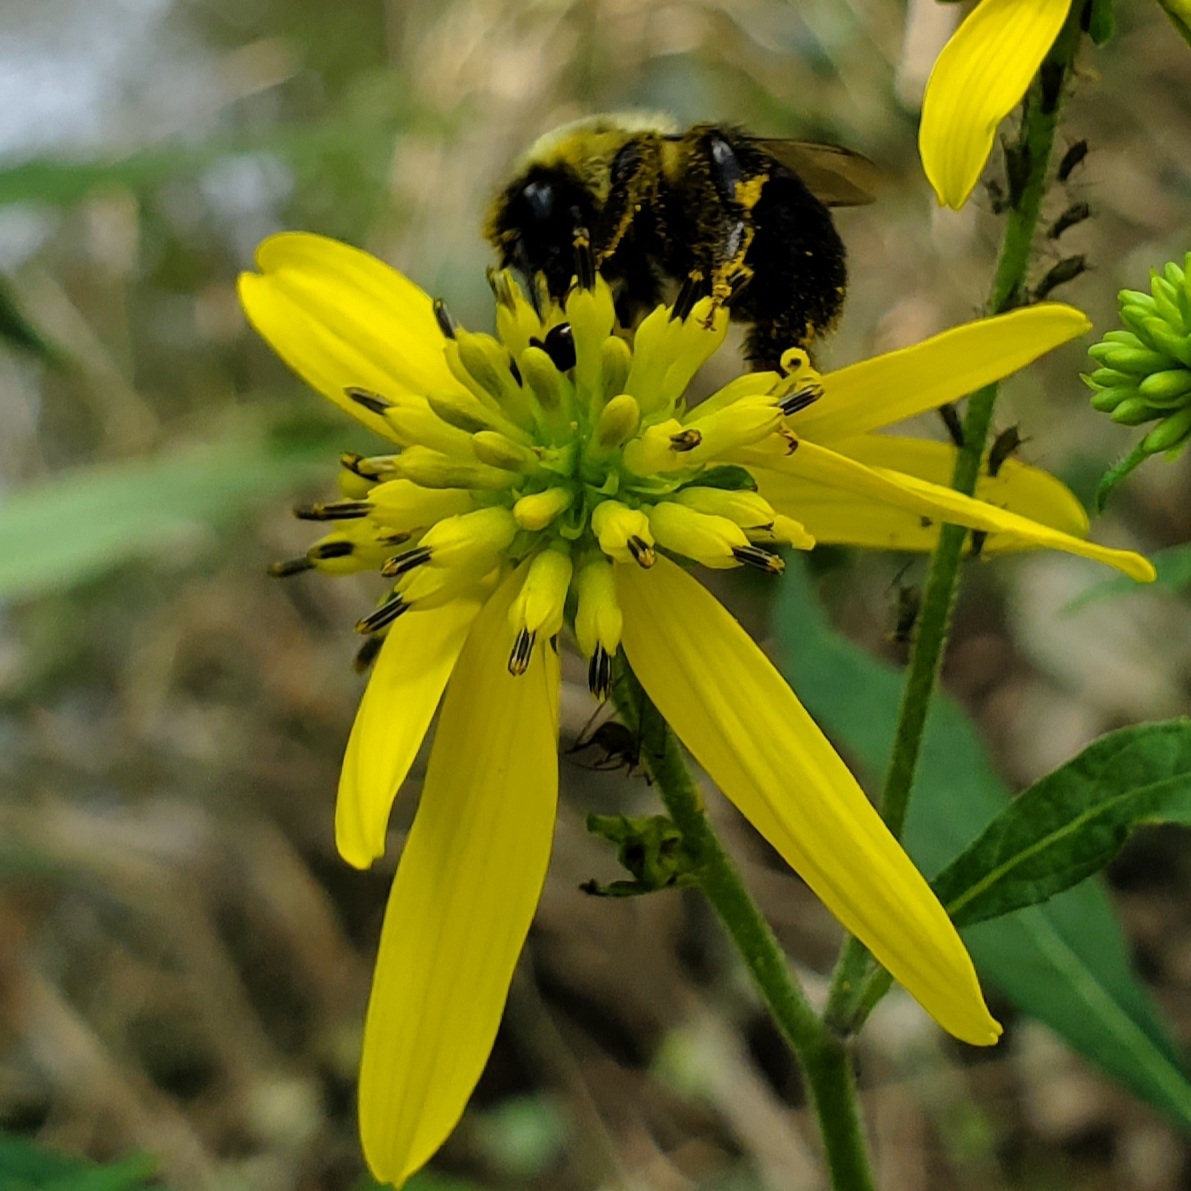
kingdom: Animalia
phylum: Arthropoda
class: Insecta
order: Hymenoptera
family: Apidae
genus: Bombus
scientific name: Bombus impatiens
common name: Common eastern bumble bee
